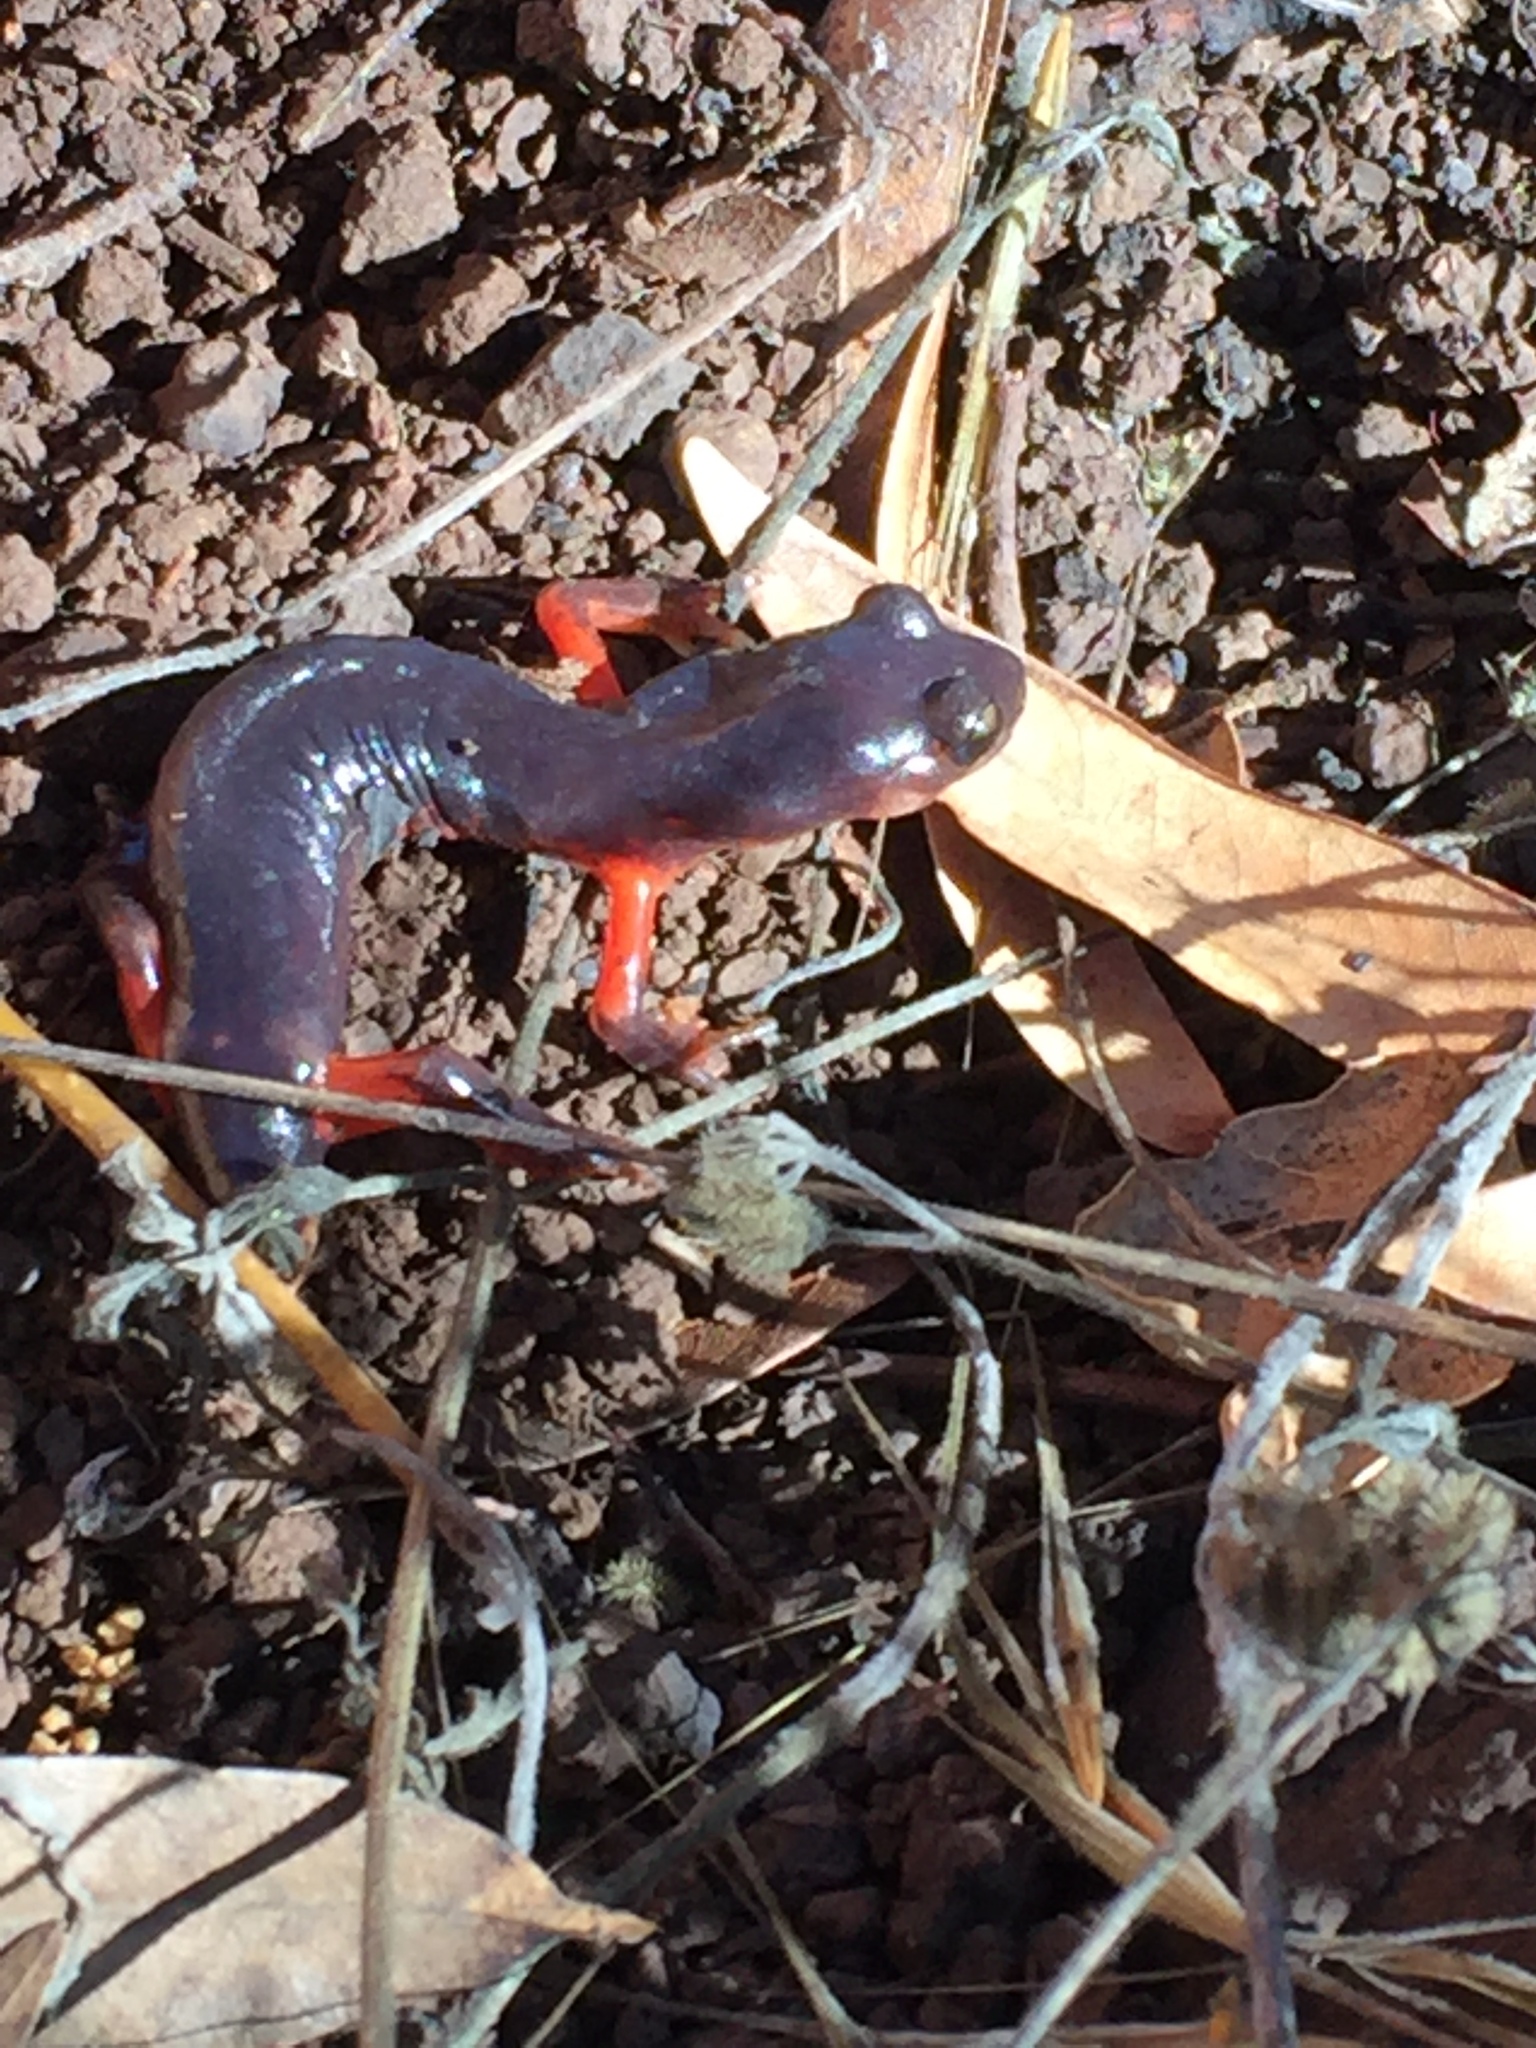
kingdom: Animalia
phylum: Chordata
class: Amphibia
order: Caudata
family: Plethodontidae
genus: Ensatina
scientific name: Ensatina eschscholtzii
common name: Ensatina
